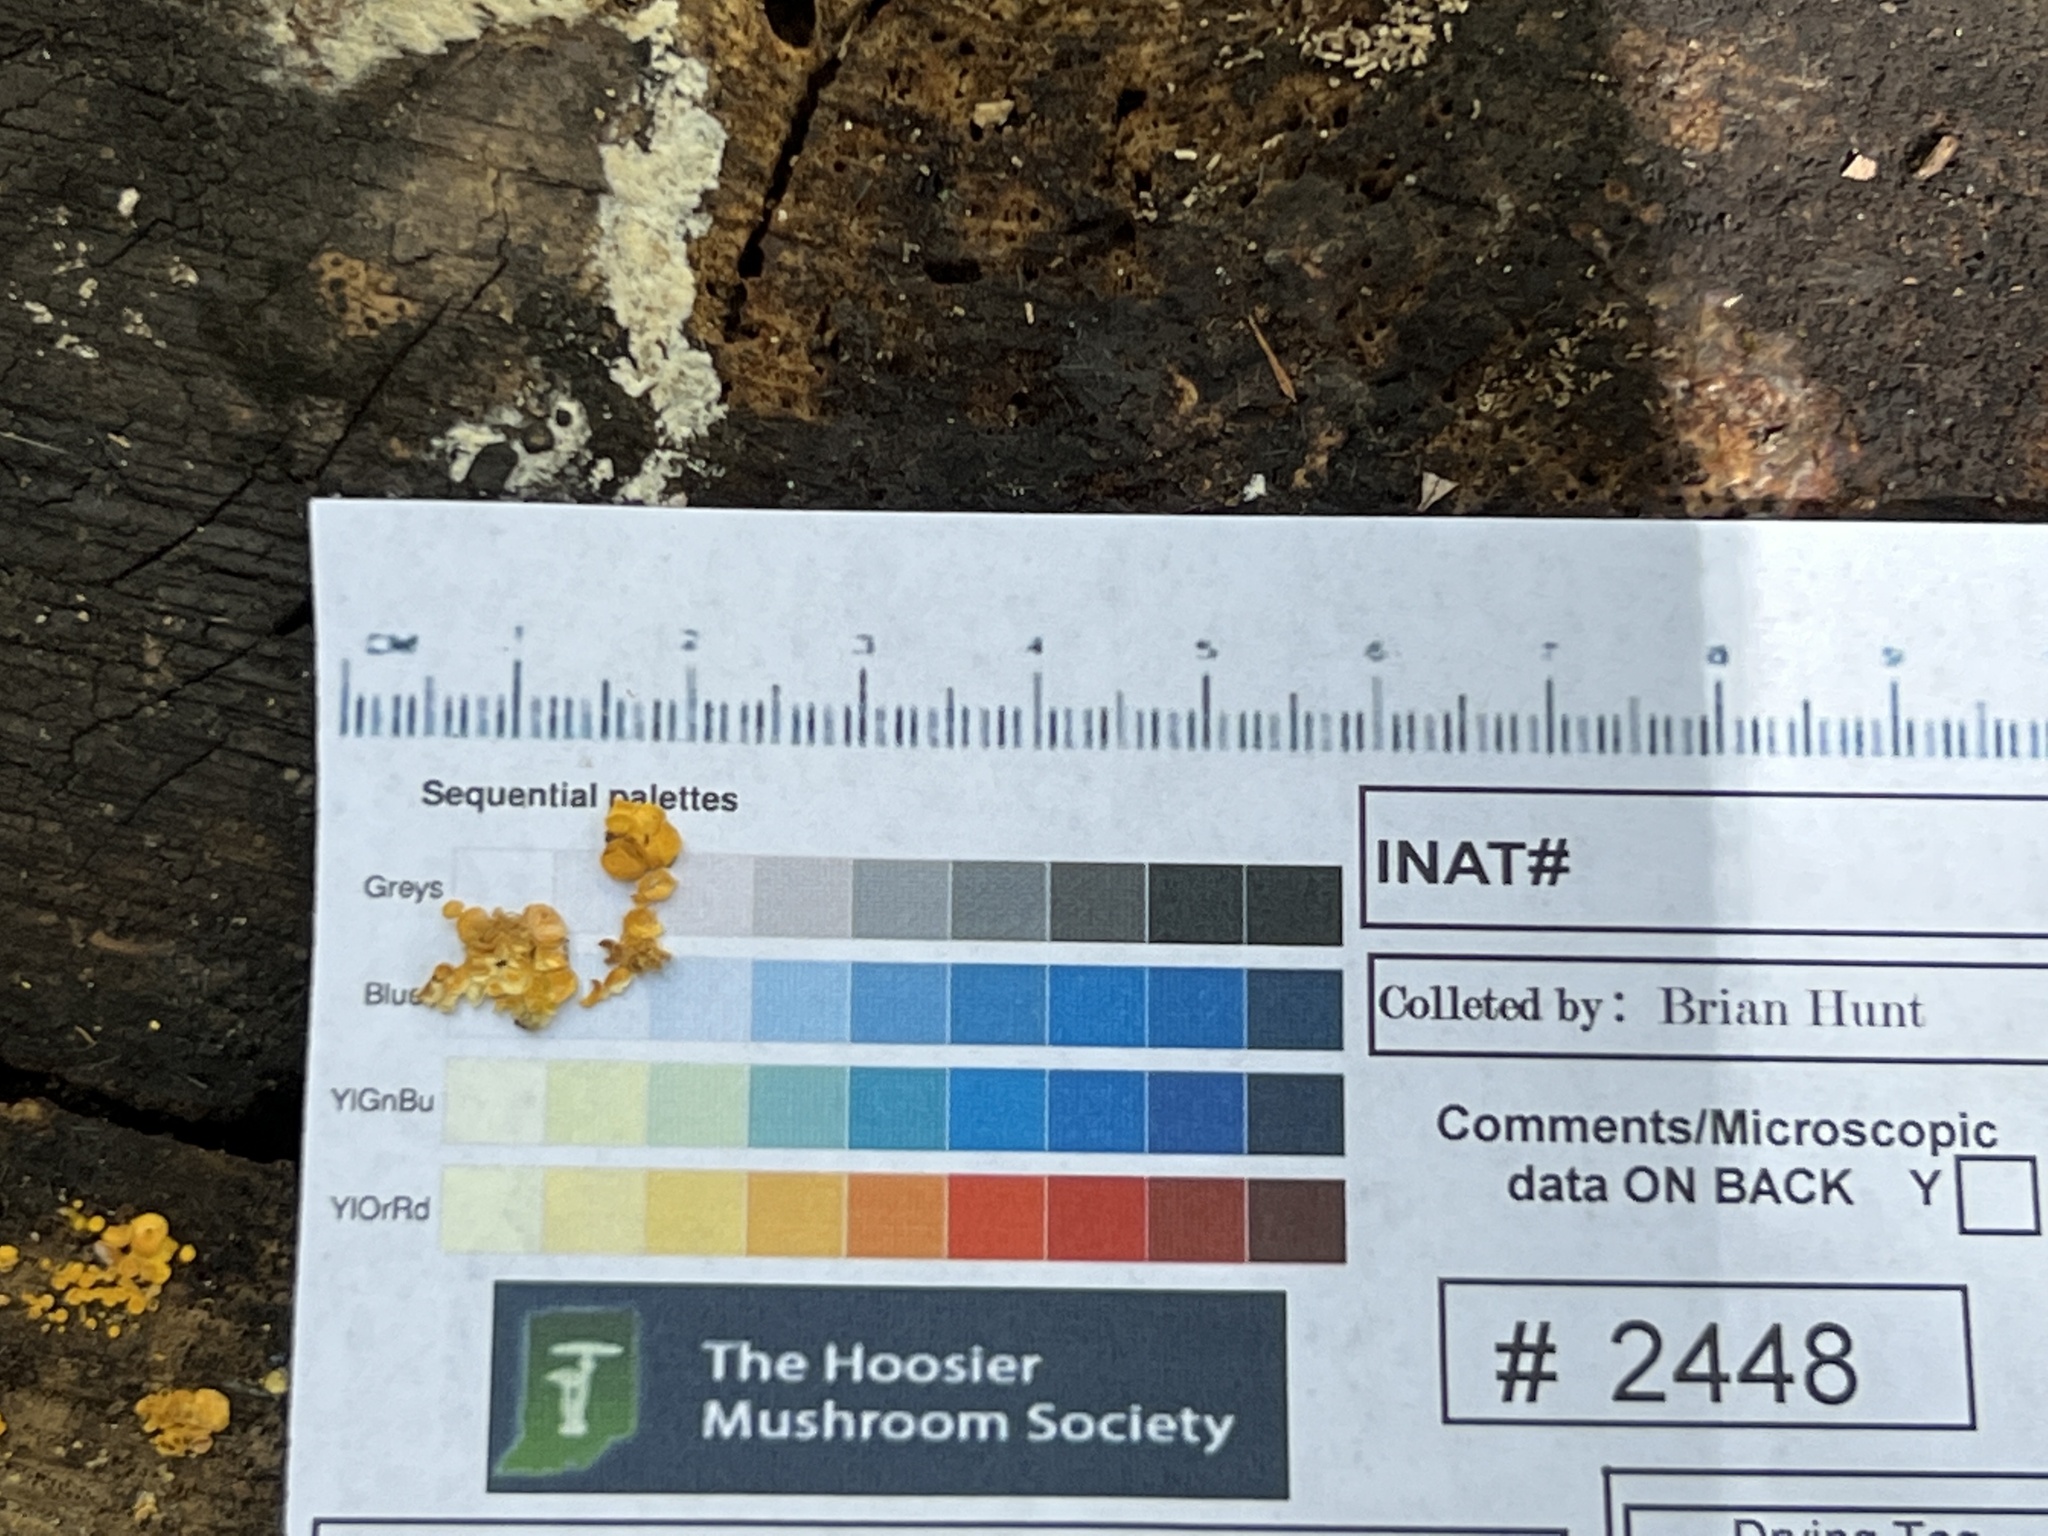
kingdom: Fungi
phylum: Ascomycota
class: Leotiomycetes
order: Helotiales
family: Pezizellaceae
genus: Calycina
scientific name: Calycina citrina
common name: Yellow fairy cups
